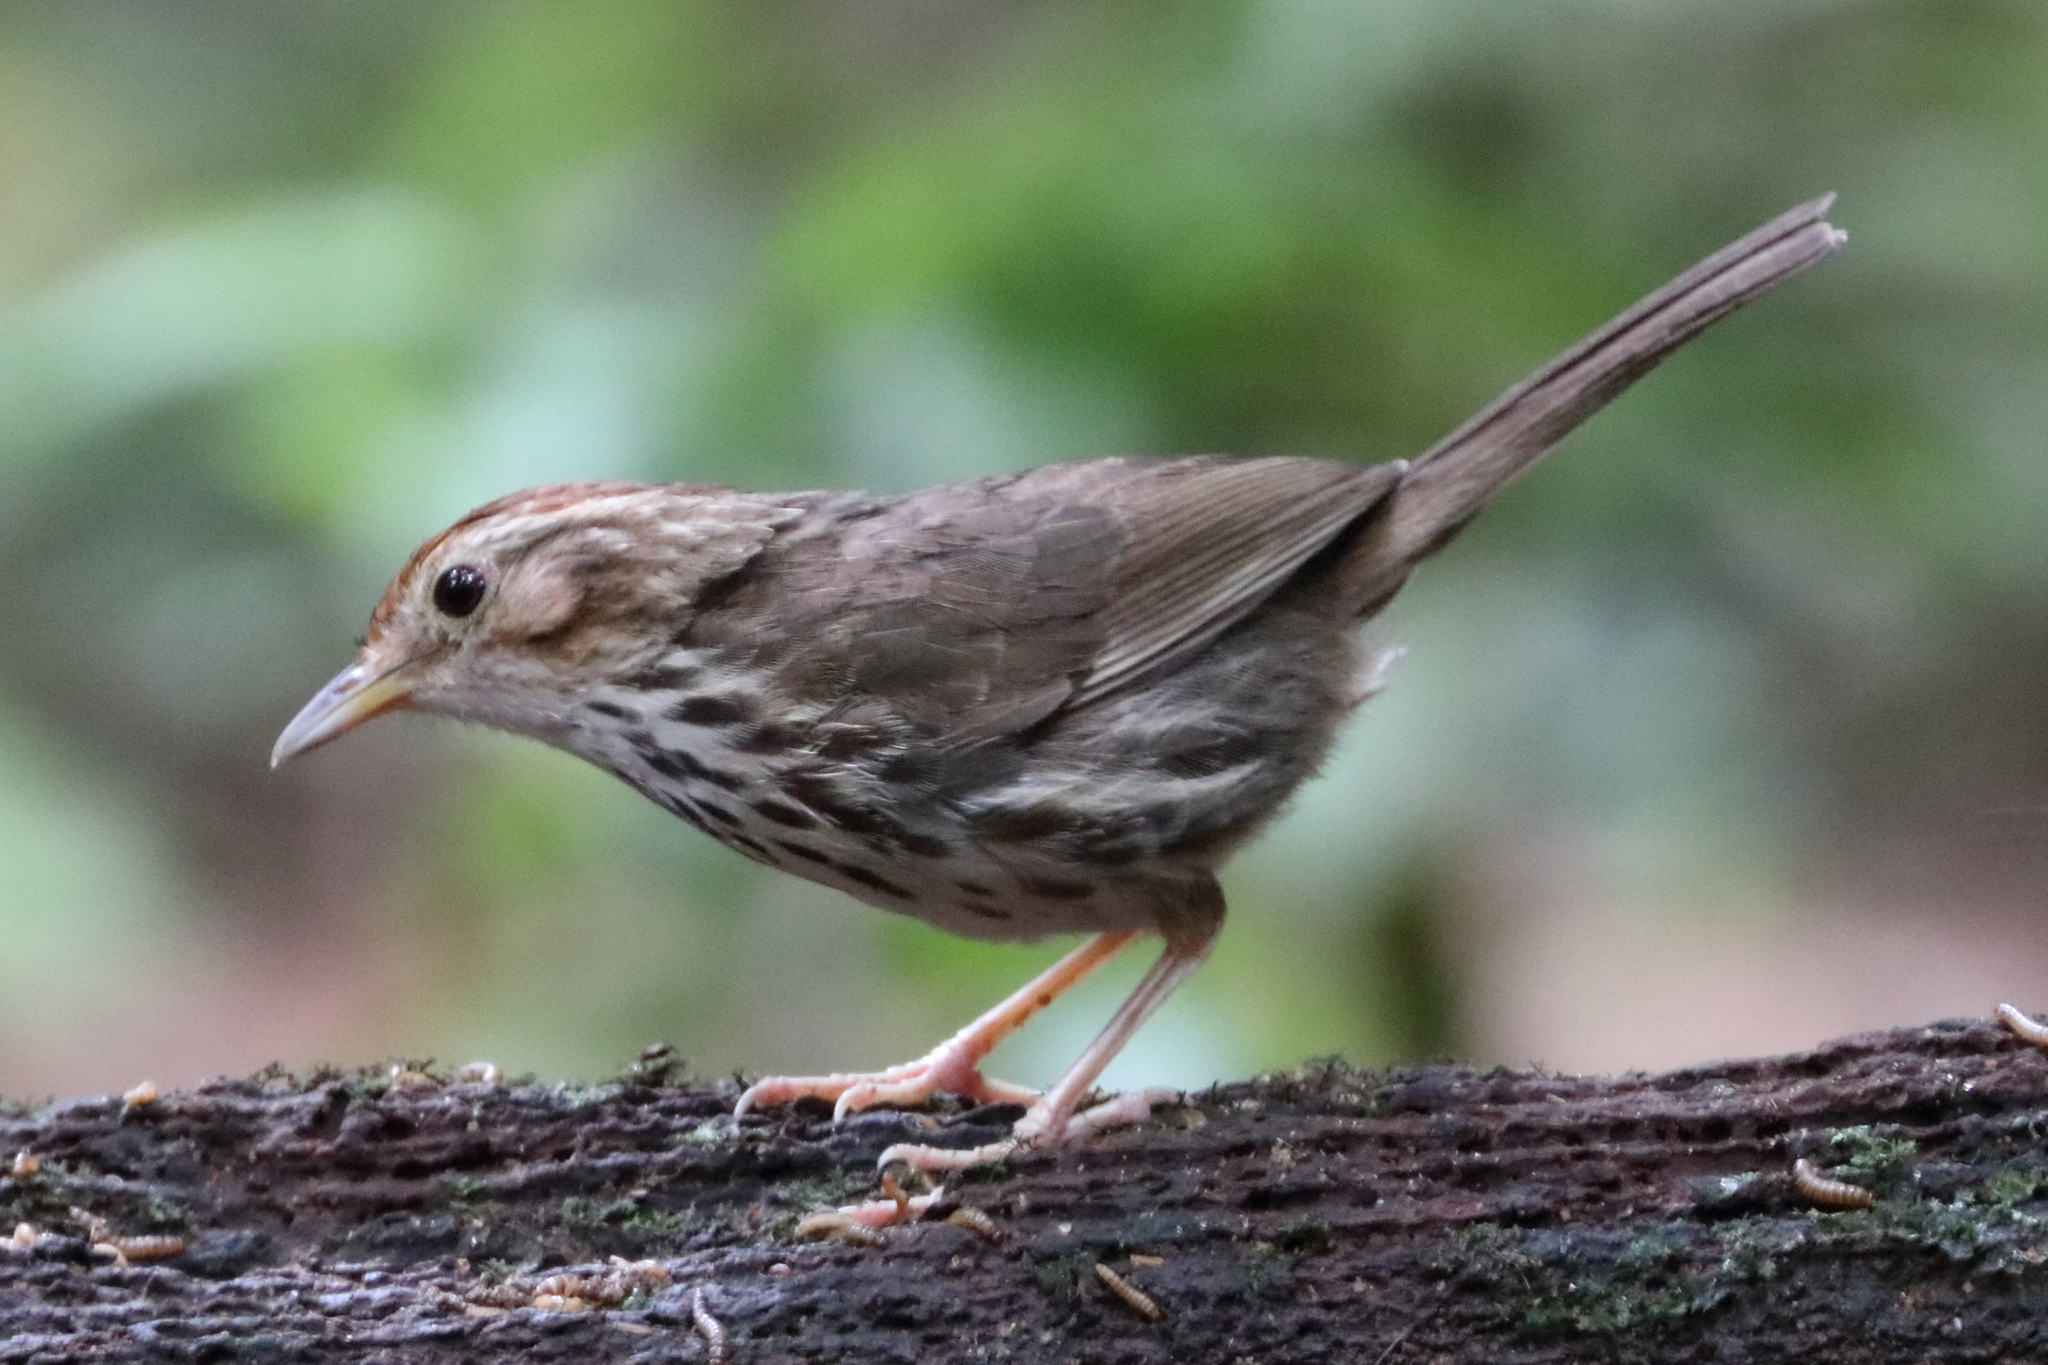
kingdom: Animalia
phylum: Chordata
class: Aves
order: Passeriformes
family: Pellorneidae
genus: Pellorneum
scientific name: Pellorneum ruficeps
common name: Puff-throated babbler
